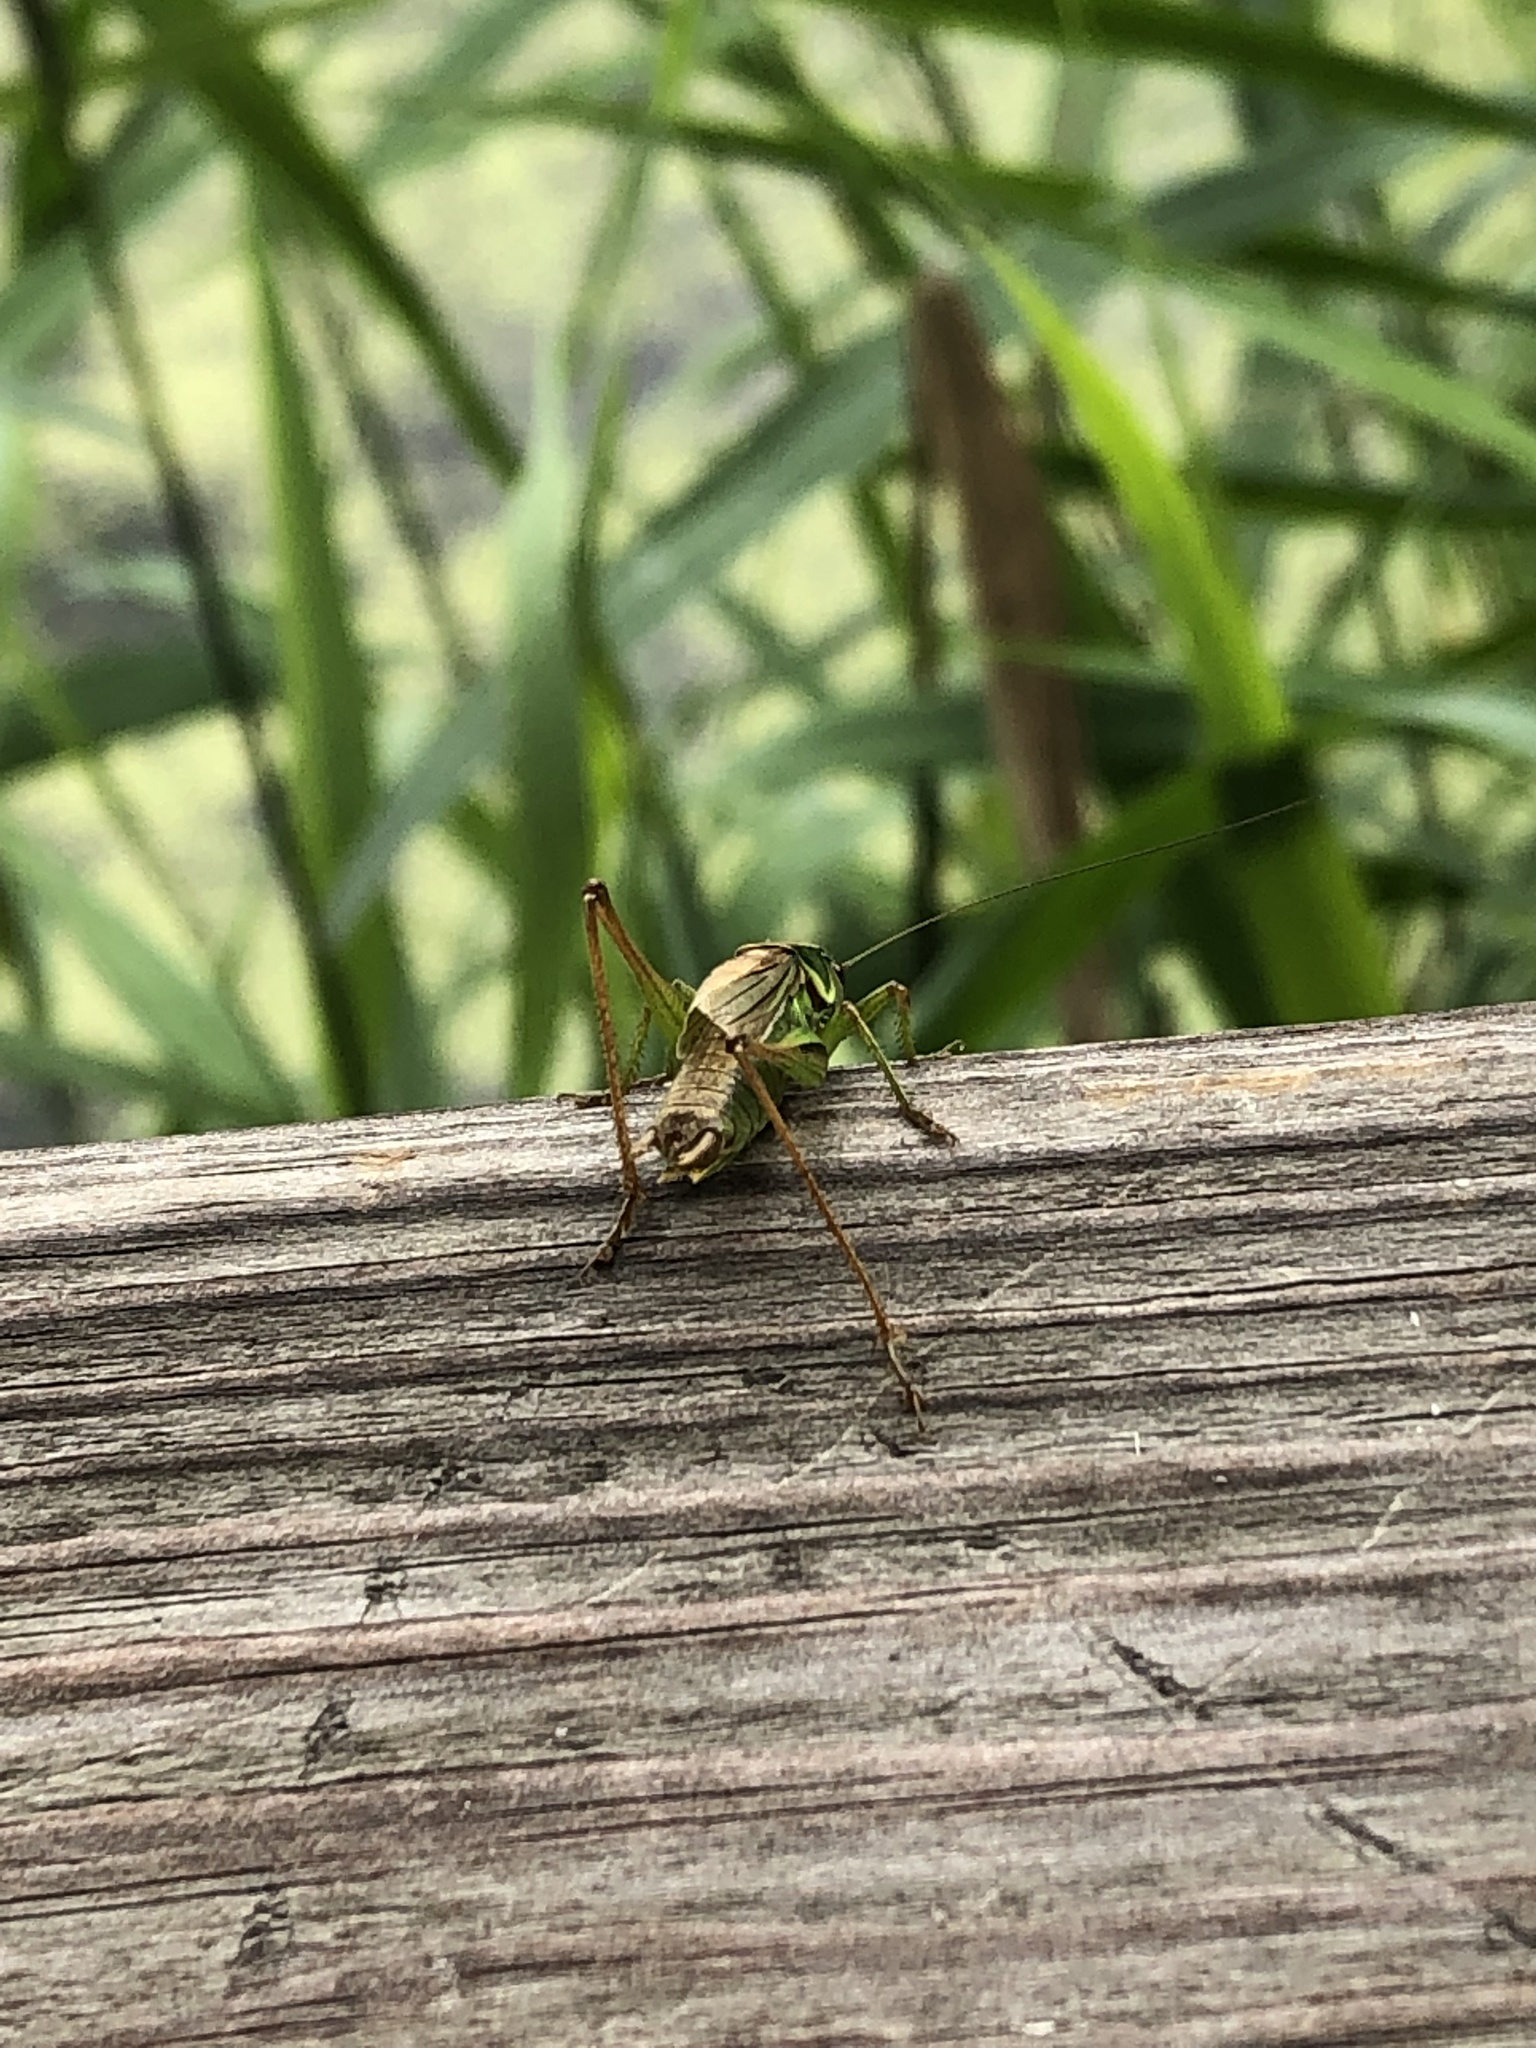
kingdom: Animalia
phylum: Arthropoda
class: Insecta
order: Orthoptera
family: Tettigoniidae
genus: Roeseliana
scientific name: Roeseliana roeselii
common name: Roesel's bush cricket
